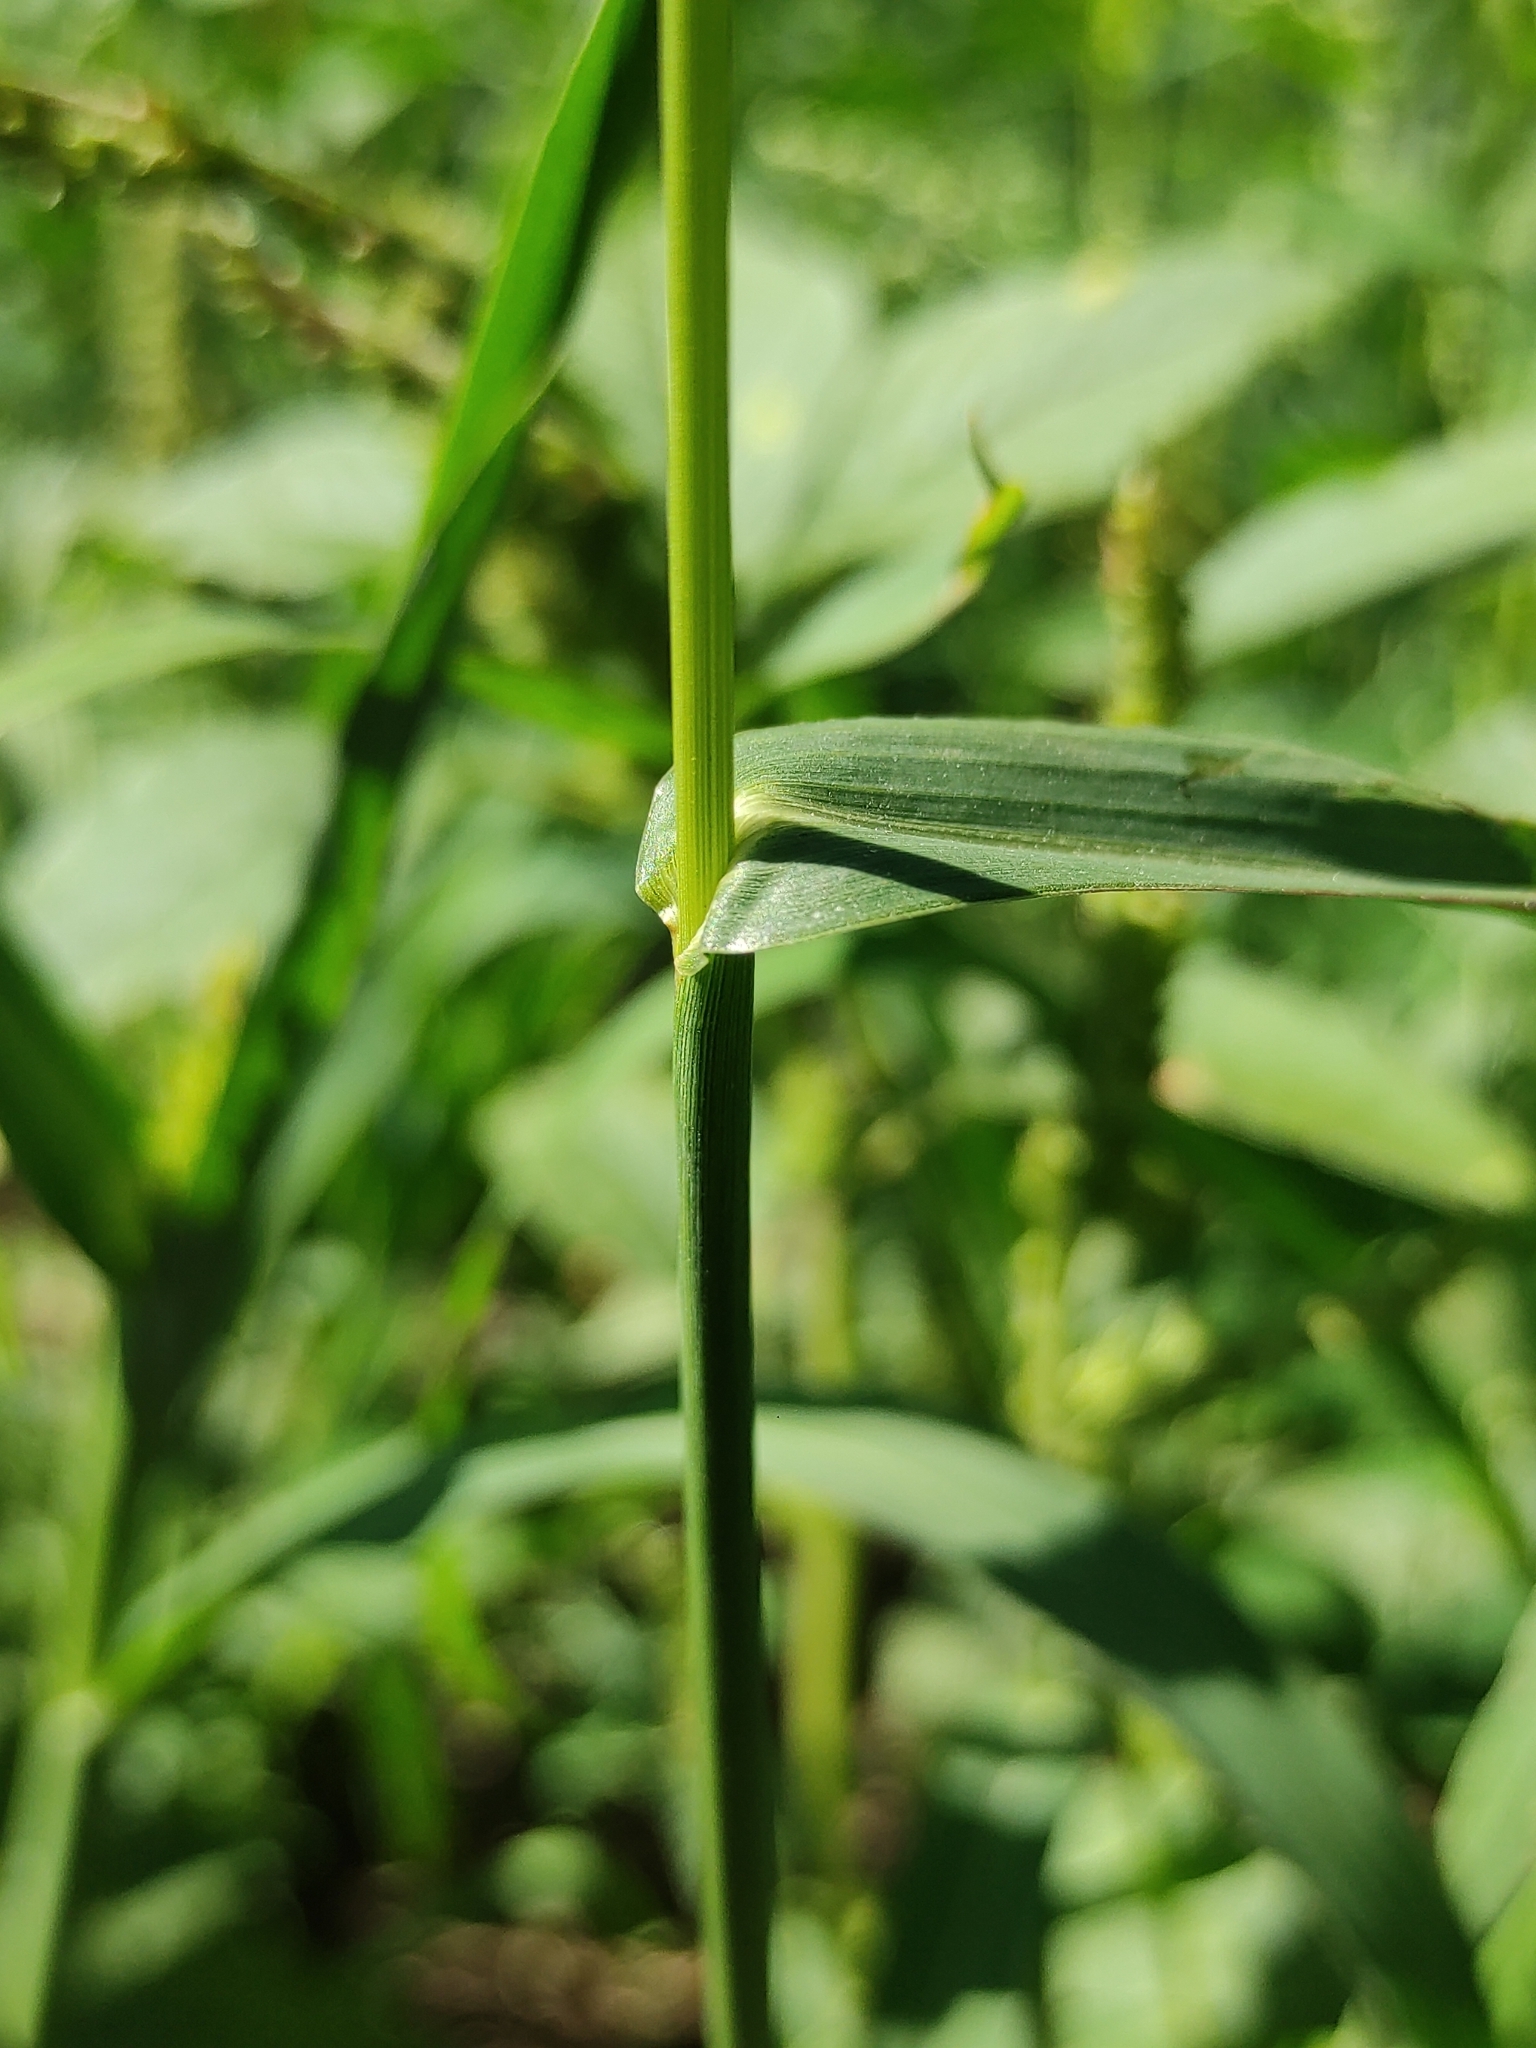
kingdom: Plantae
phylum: Tracheophyta
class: Liliopsida
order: Poales
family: Poaceae
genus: Echinochloa
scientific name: Echinochloa crus-galli
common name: Cockspur
